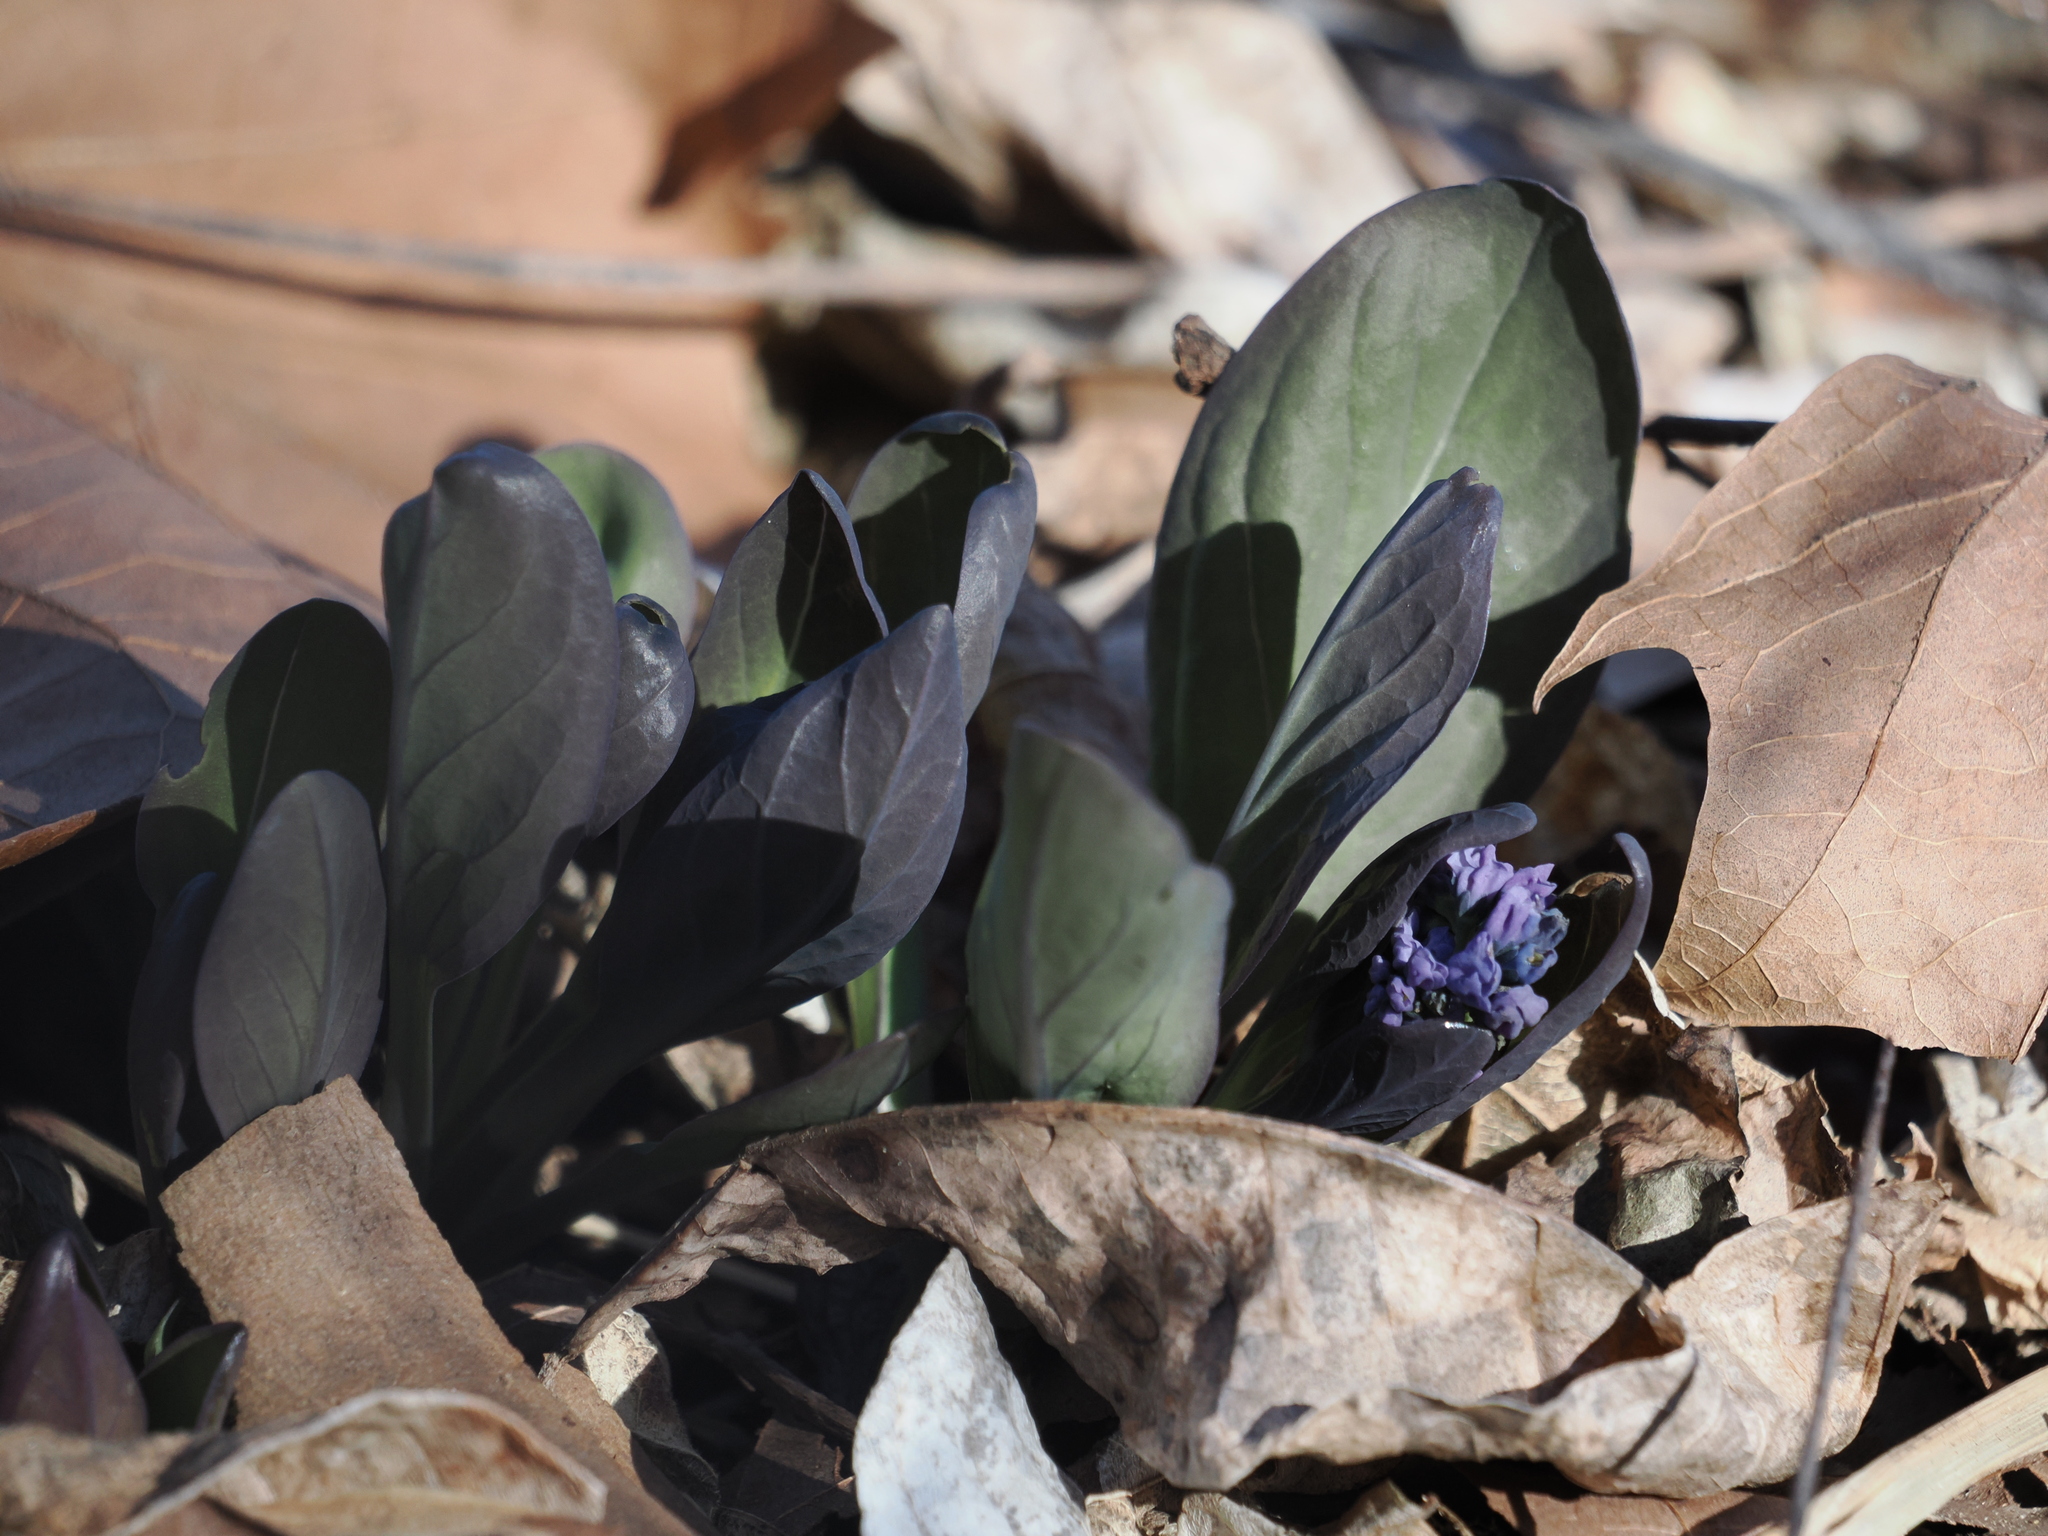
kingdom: Plantae
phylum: Tracheophyta
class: Magnoliopsida
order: Boraginales
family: Boraginaceae
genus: Mertensia
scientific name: Mertensia virginica
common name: Virginia bluebells
